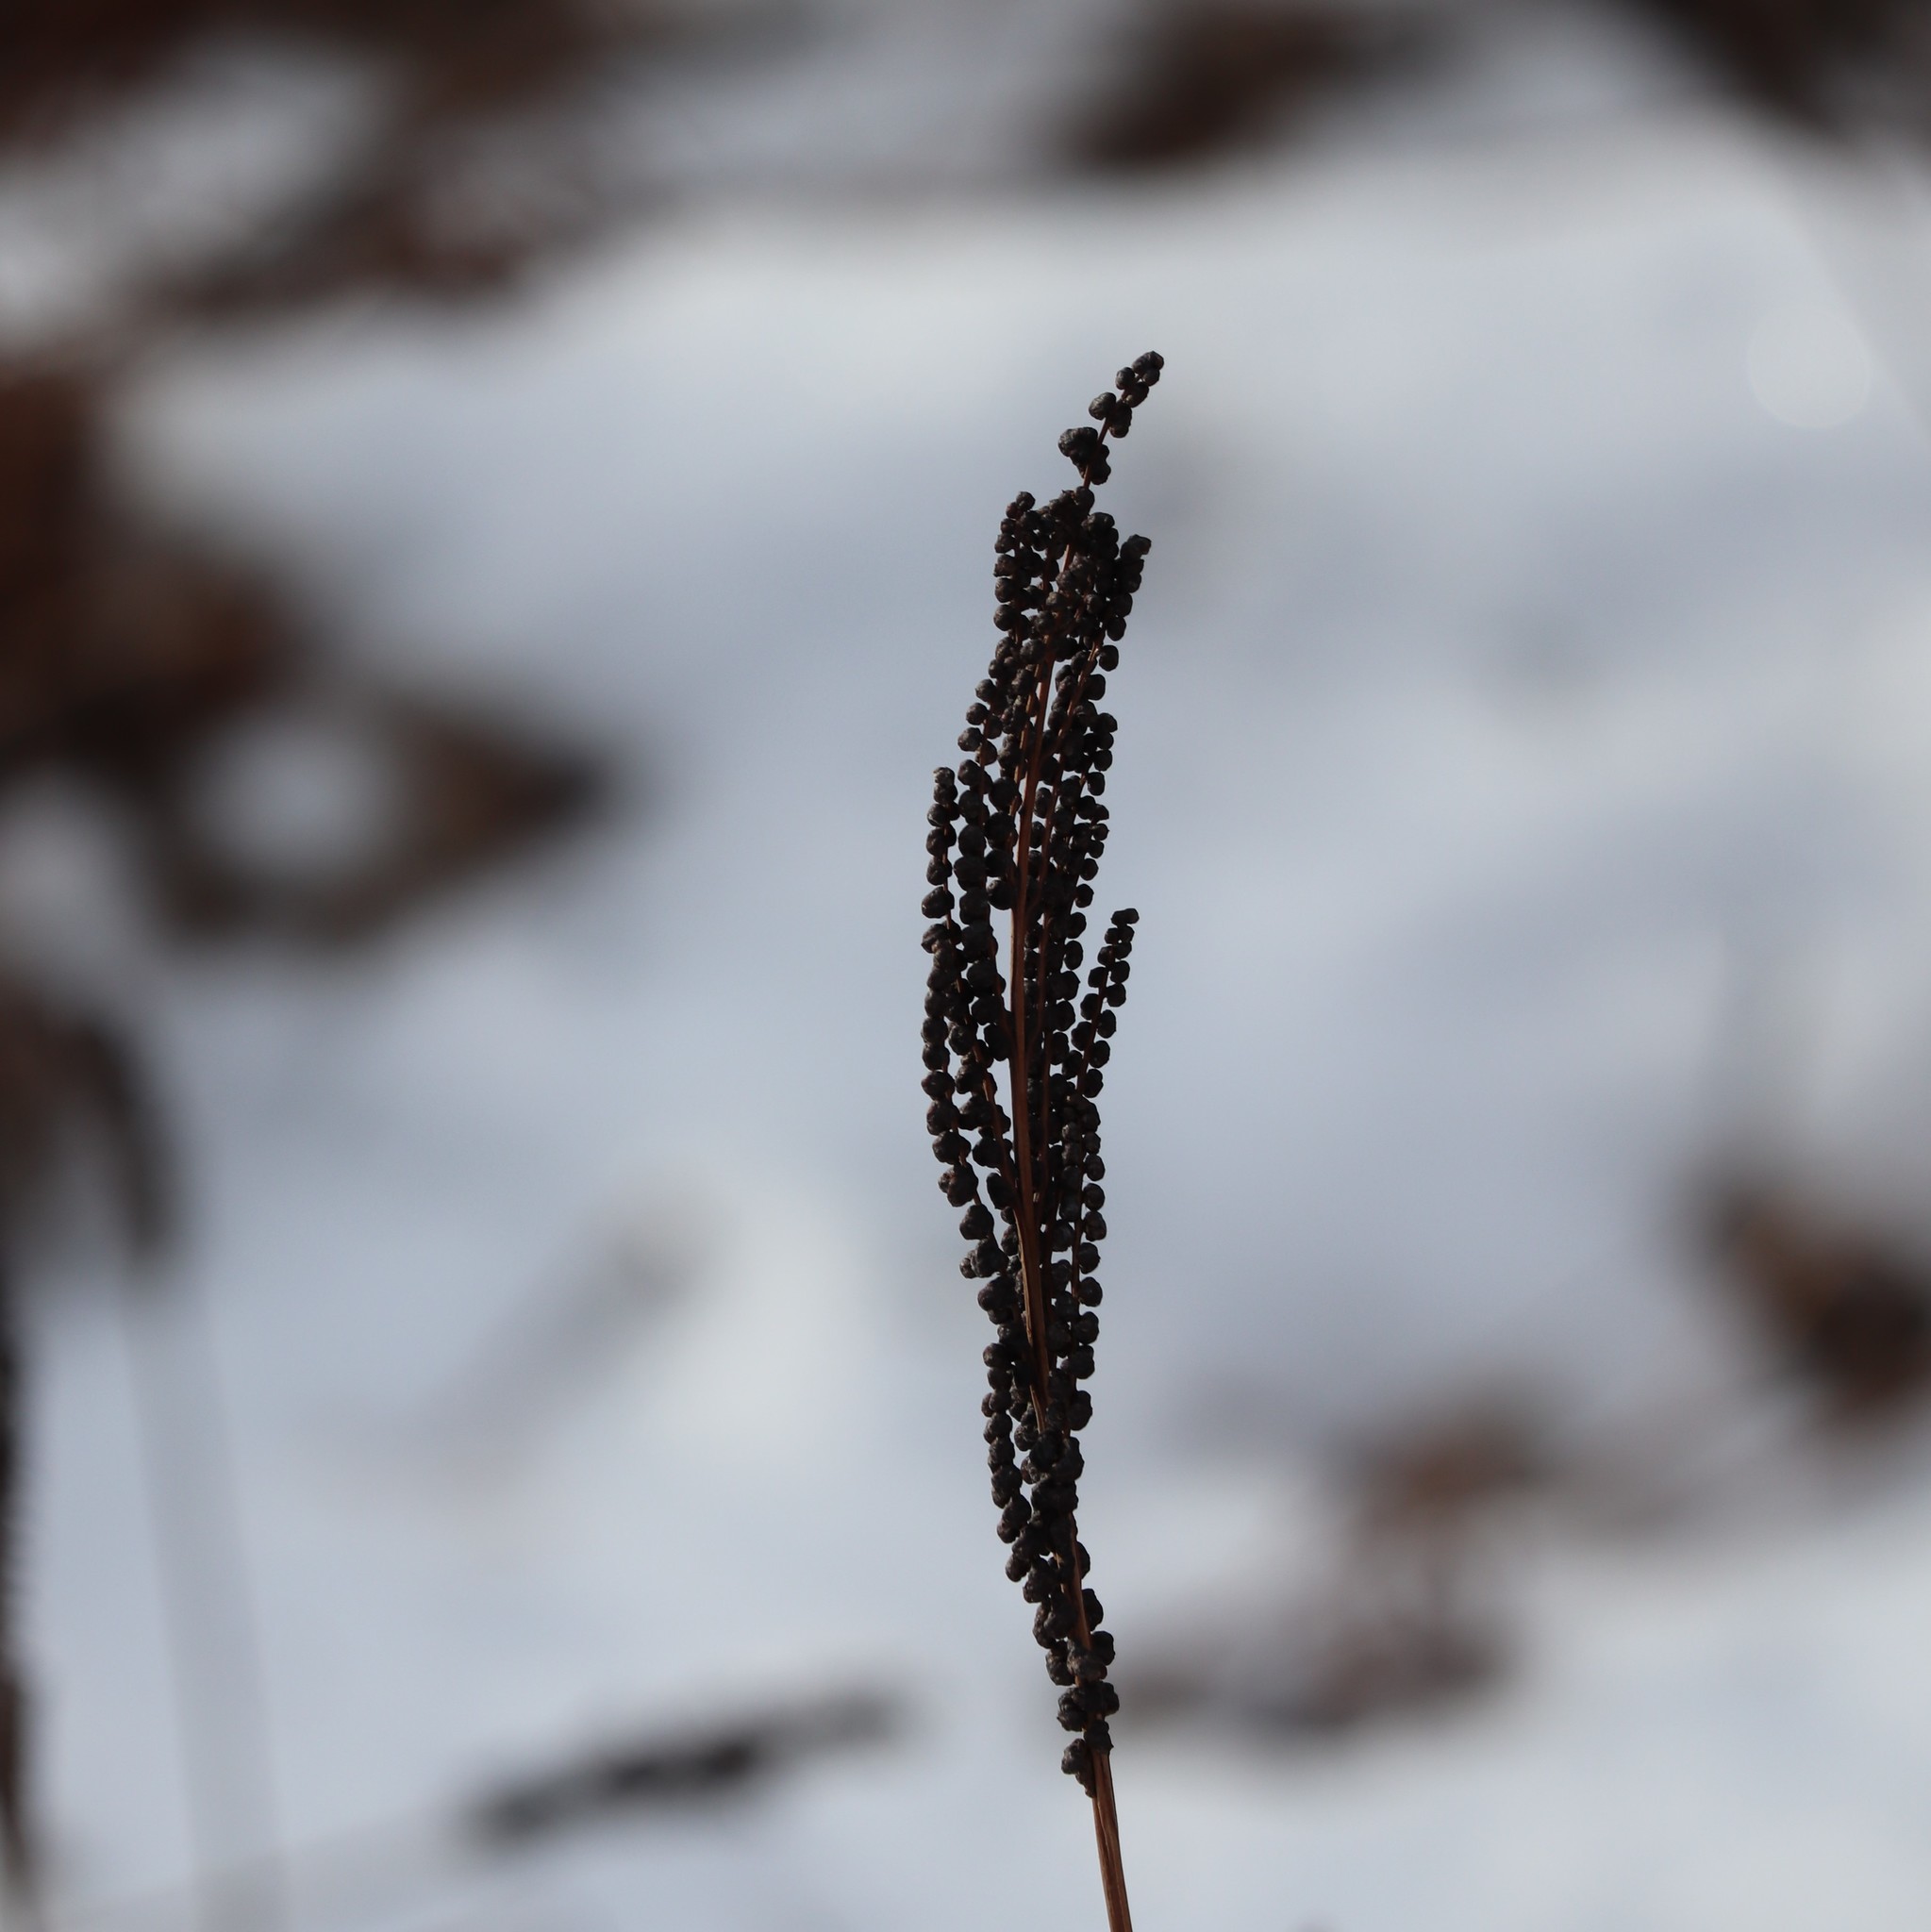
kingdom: Plantae
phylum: Tracheophyta
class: Polypodiopsida
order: Polypodiales
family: Onocleaceae
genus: Onoclea
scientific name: Onoclea sensibilis
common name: Sensitive fern
